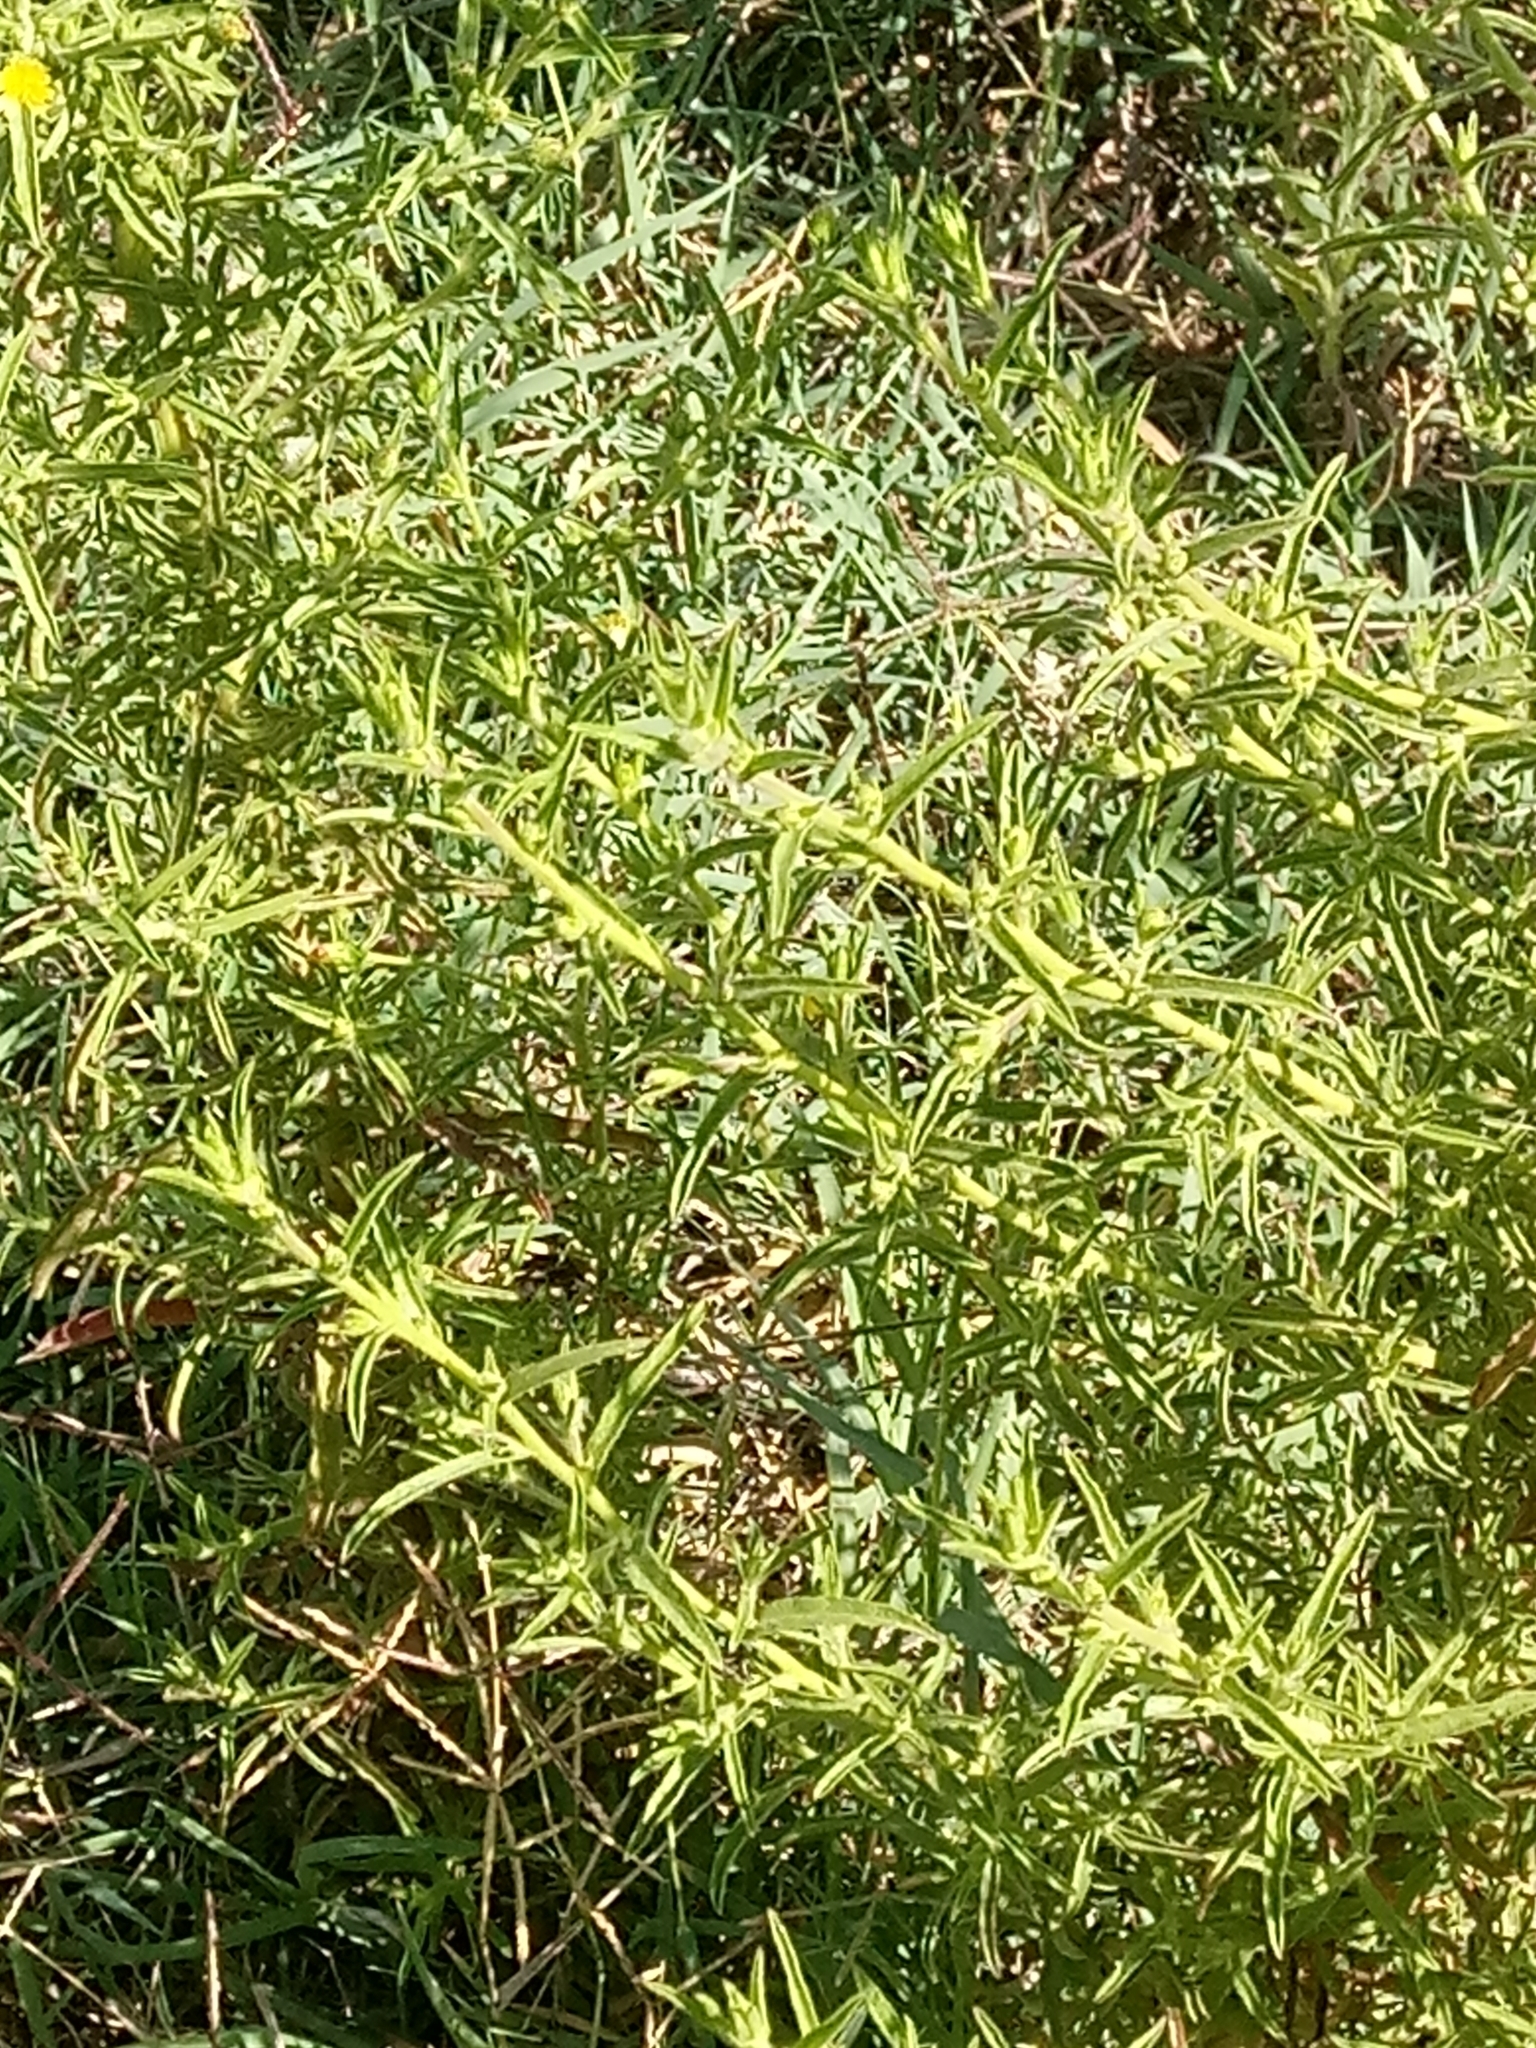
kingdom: Plantae
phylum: Tracheophyta
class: Magnoliopsida
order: Asterales
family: Asteraceae
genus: Dittrichia
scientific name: Dittrichia graveolens
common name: Stinking fleabane
